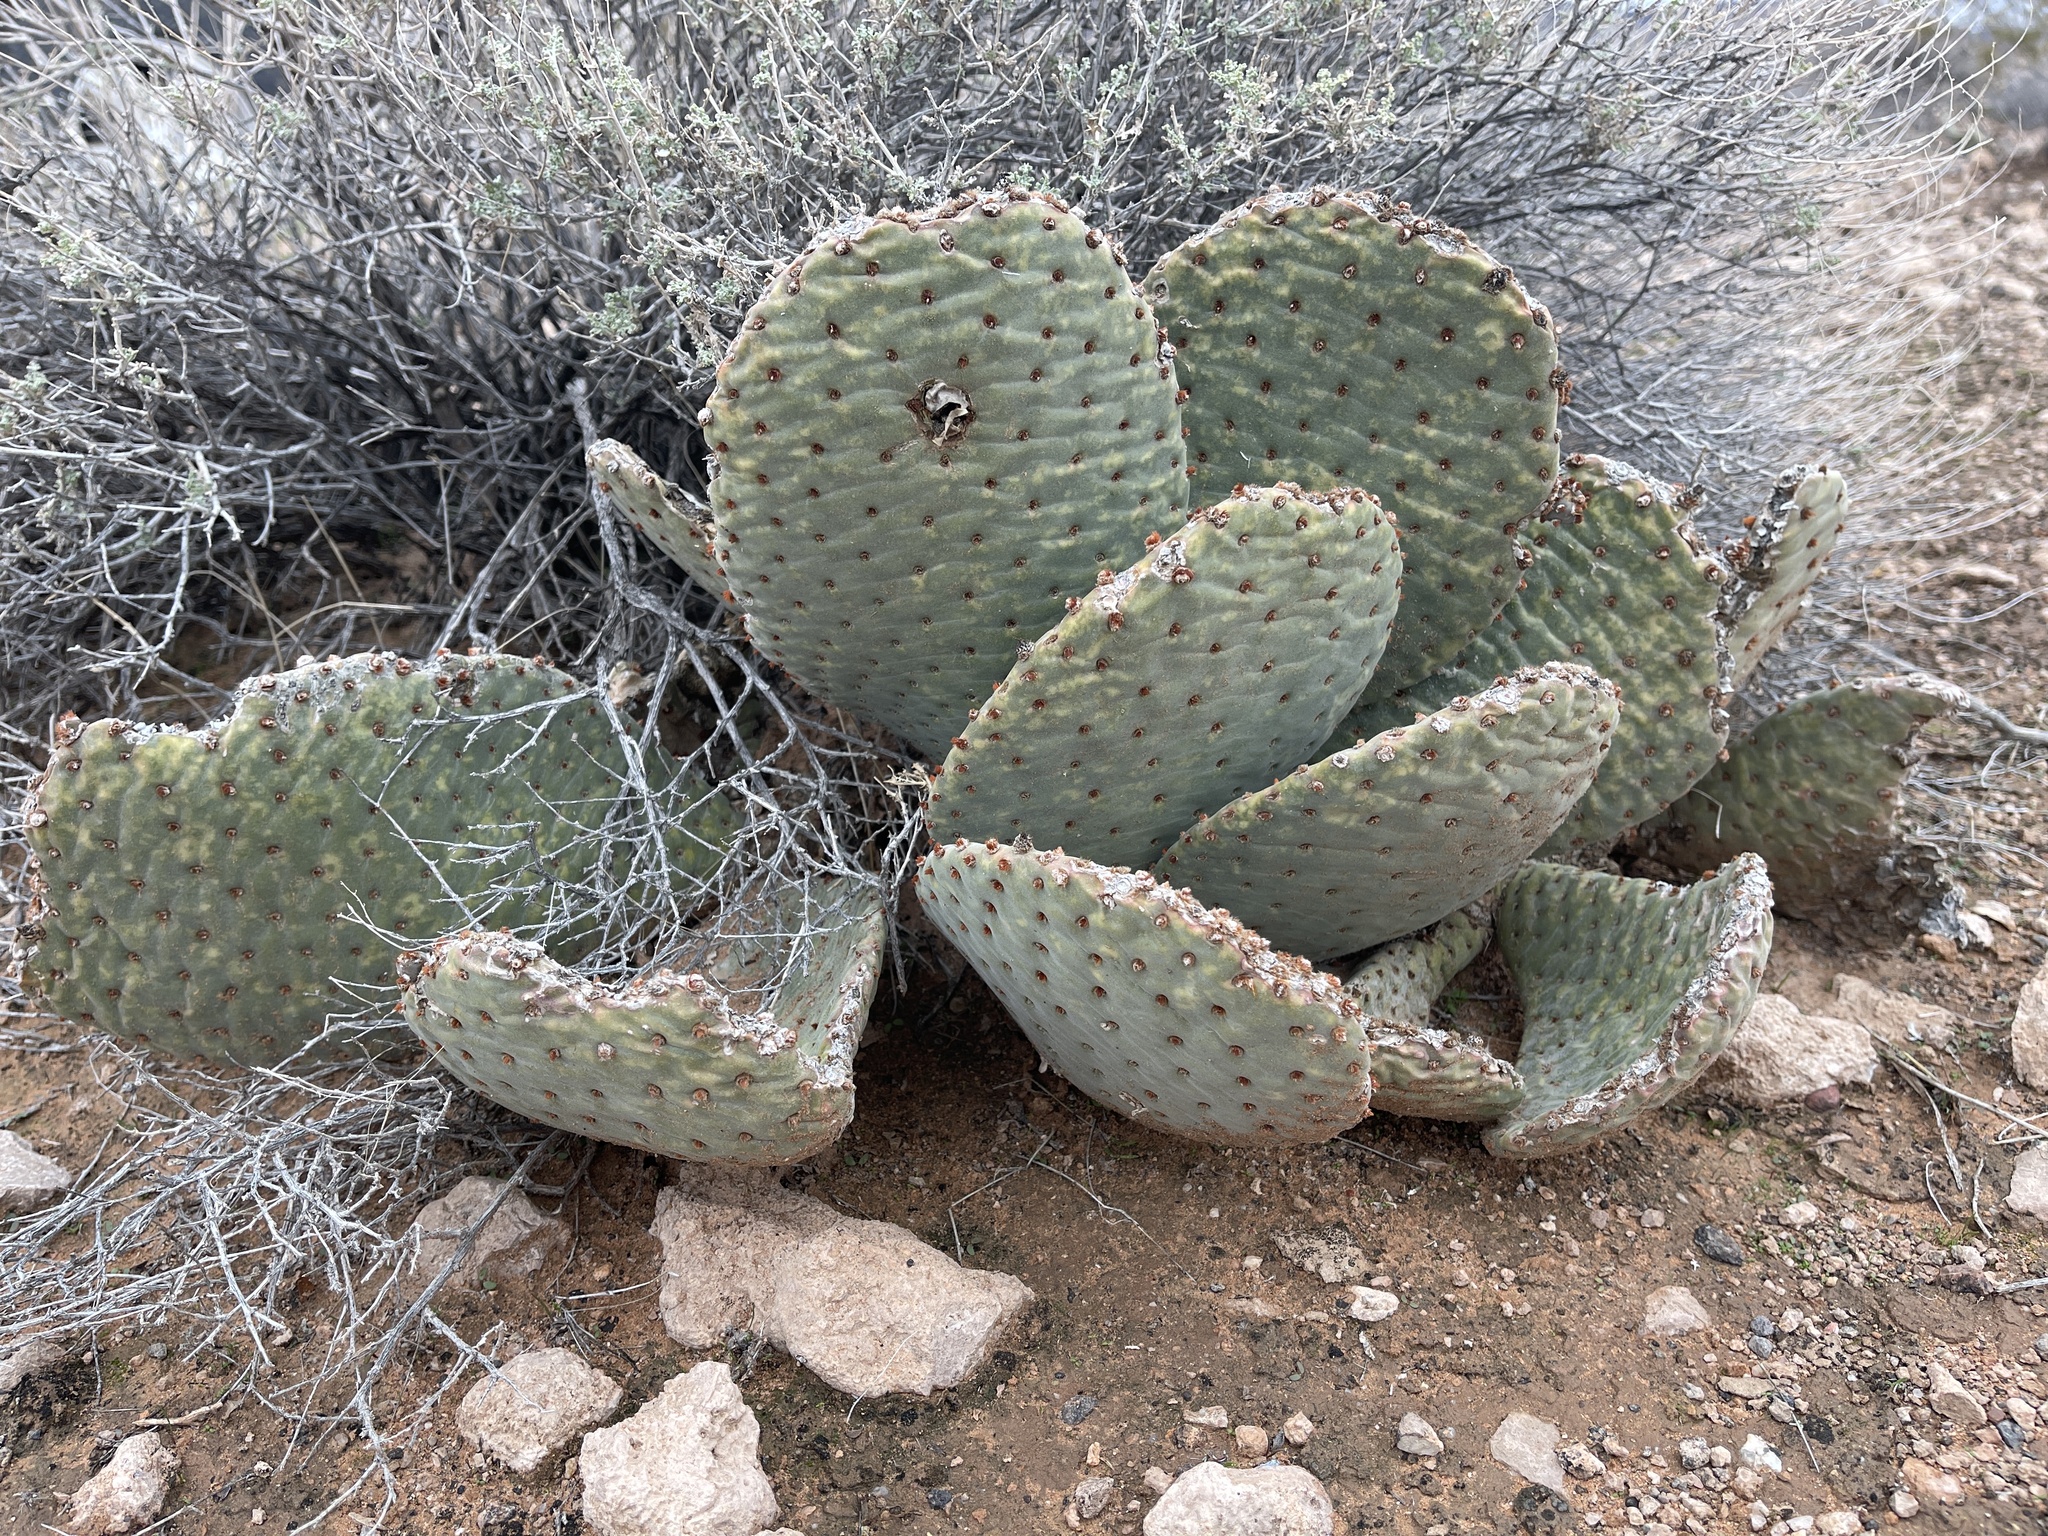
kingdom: Plantae
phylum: Tracheophyta
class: Magnoliopsida
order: Caryophyllales
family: Cactaceae
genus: Opuntia
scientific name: Opuntia basilaris
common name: Beavertail prickly-pear
